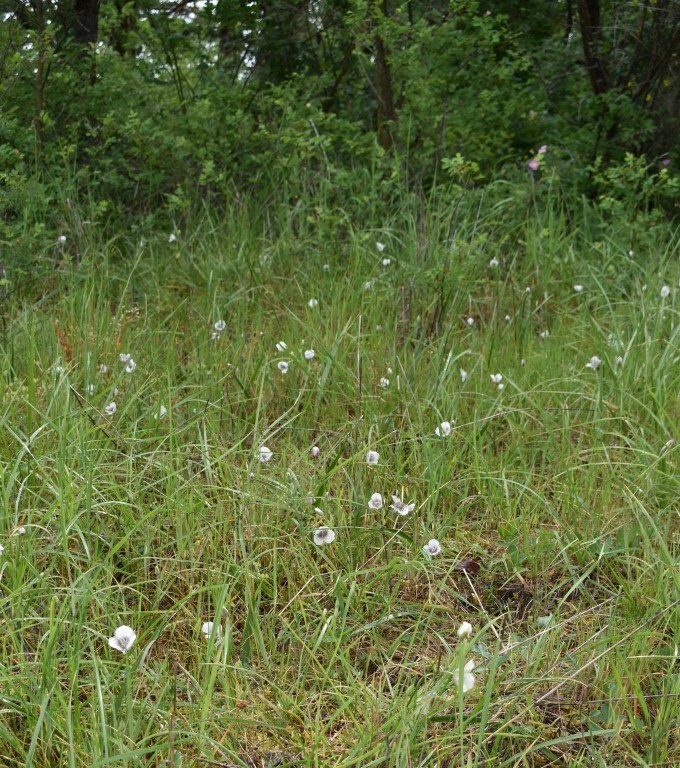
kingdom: Plantae
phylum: Tracheophyta
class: Liliopsida
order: Liliales
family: Liliaceae
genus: Calochortus
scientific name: Calochortus tolmiei
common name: Pussy-ears
